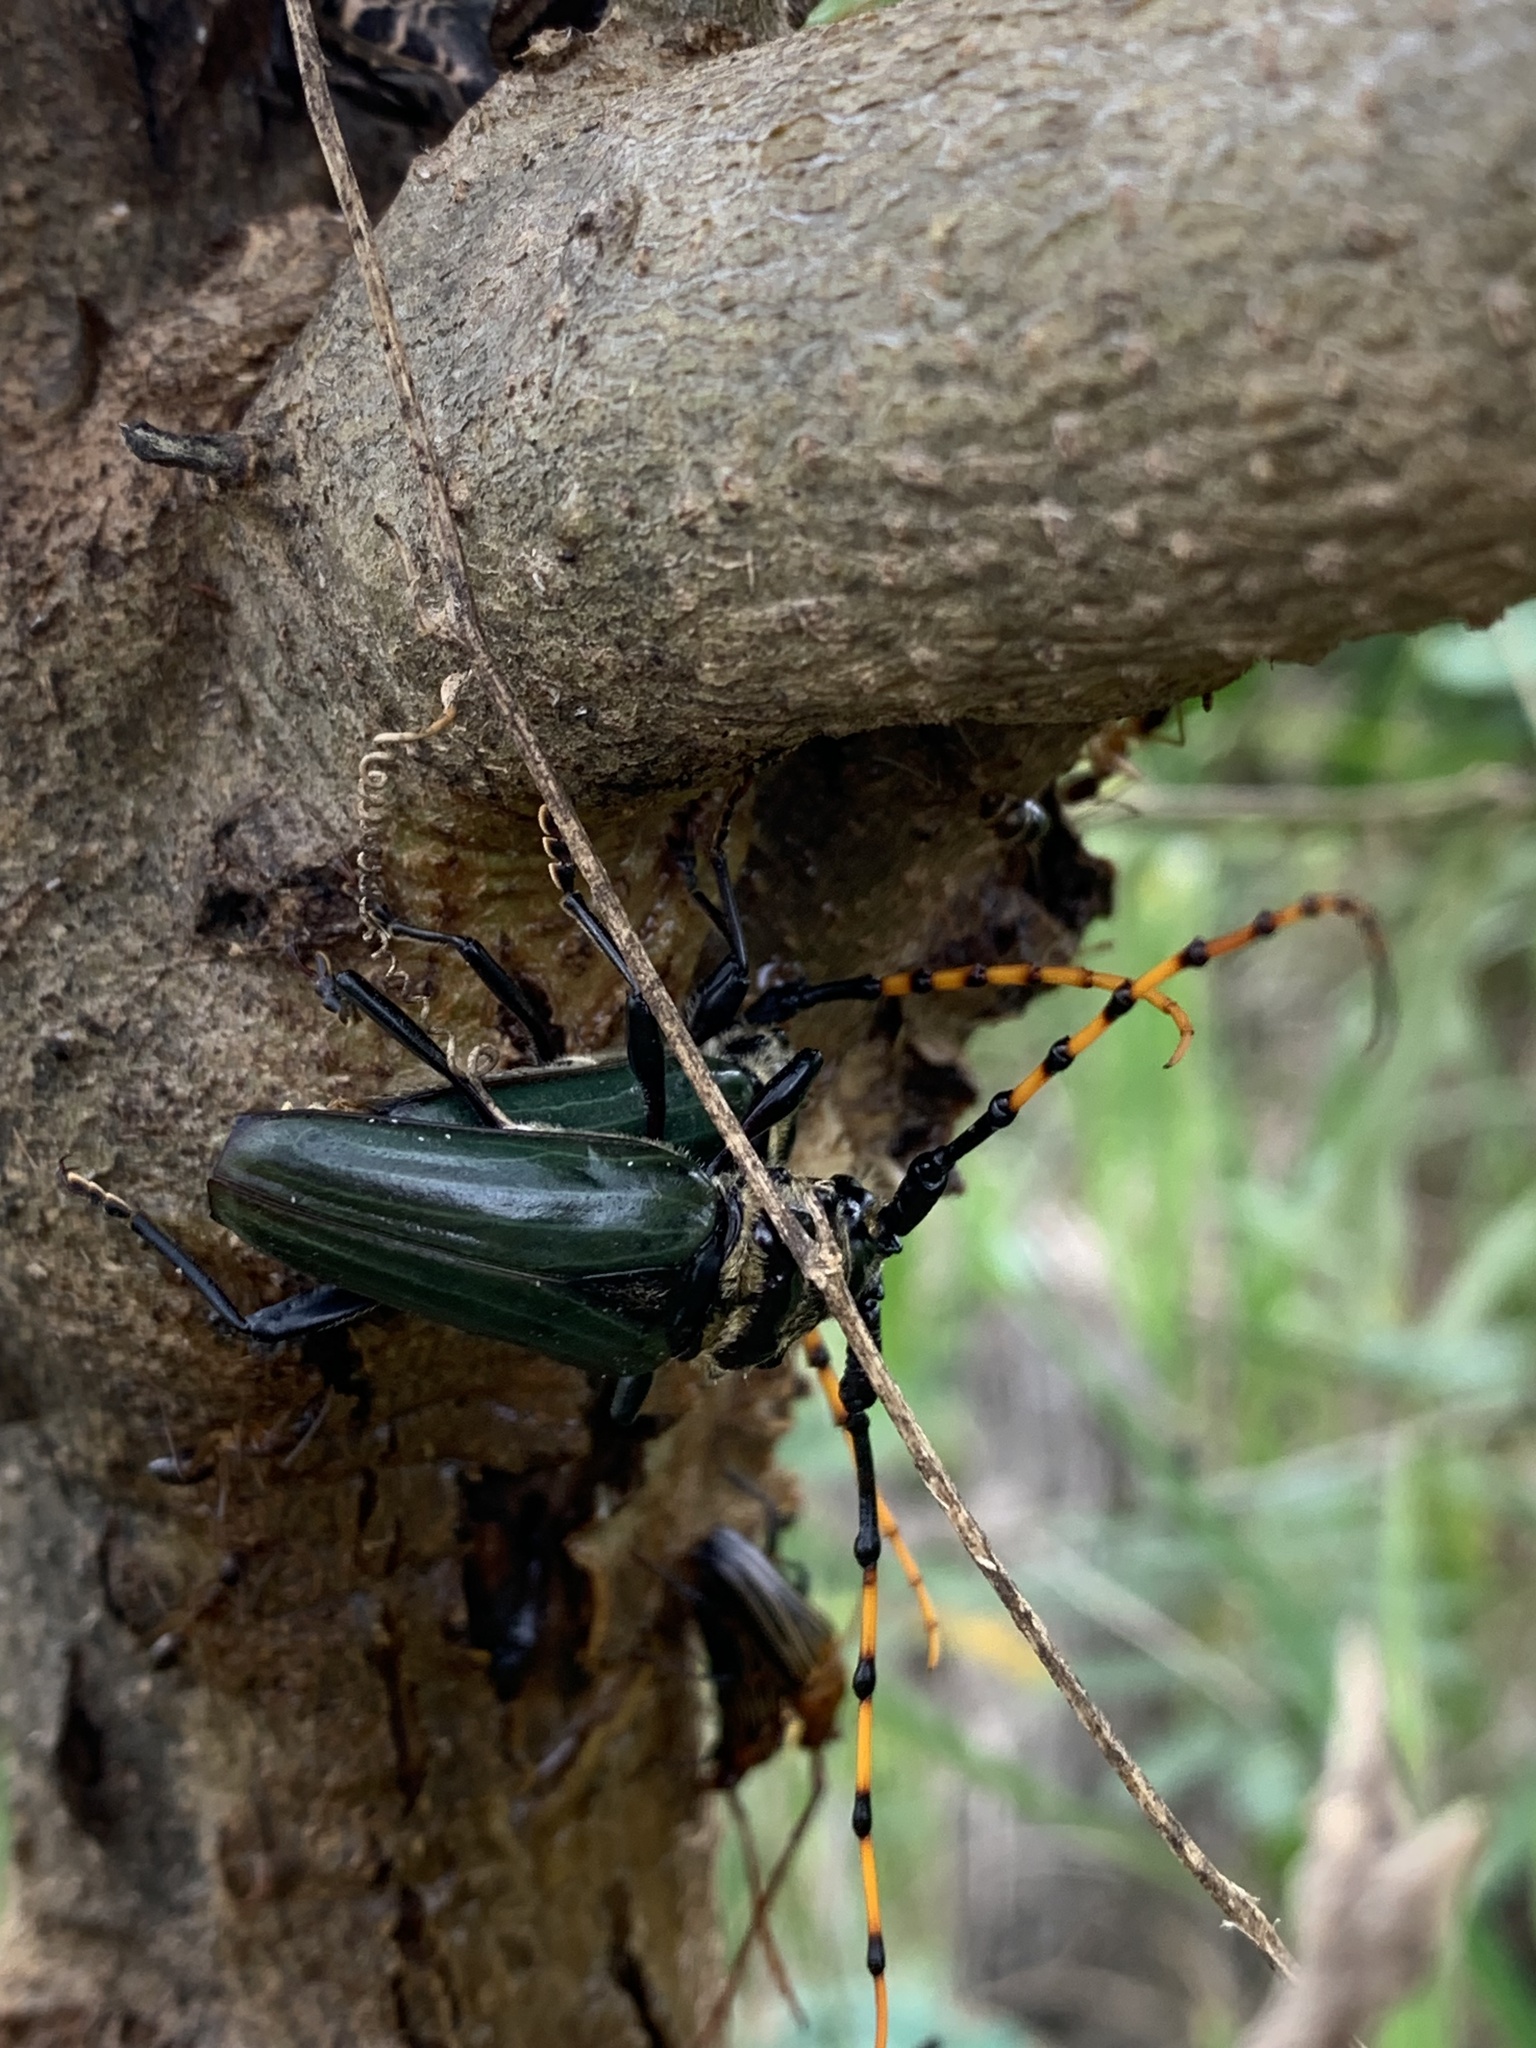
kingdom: Animalia
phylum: Arthropoda
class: Insecta
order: Coleoptera
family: Cerambycidae
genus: Retrachydes
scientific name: Retrachydes thoracicus
